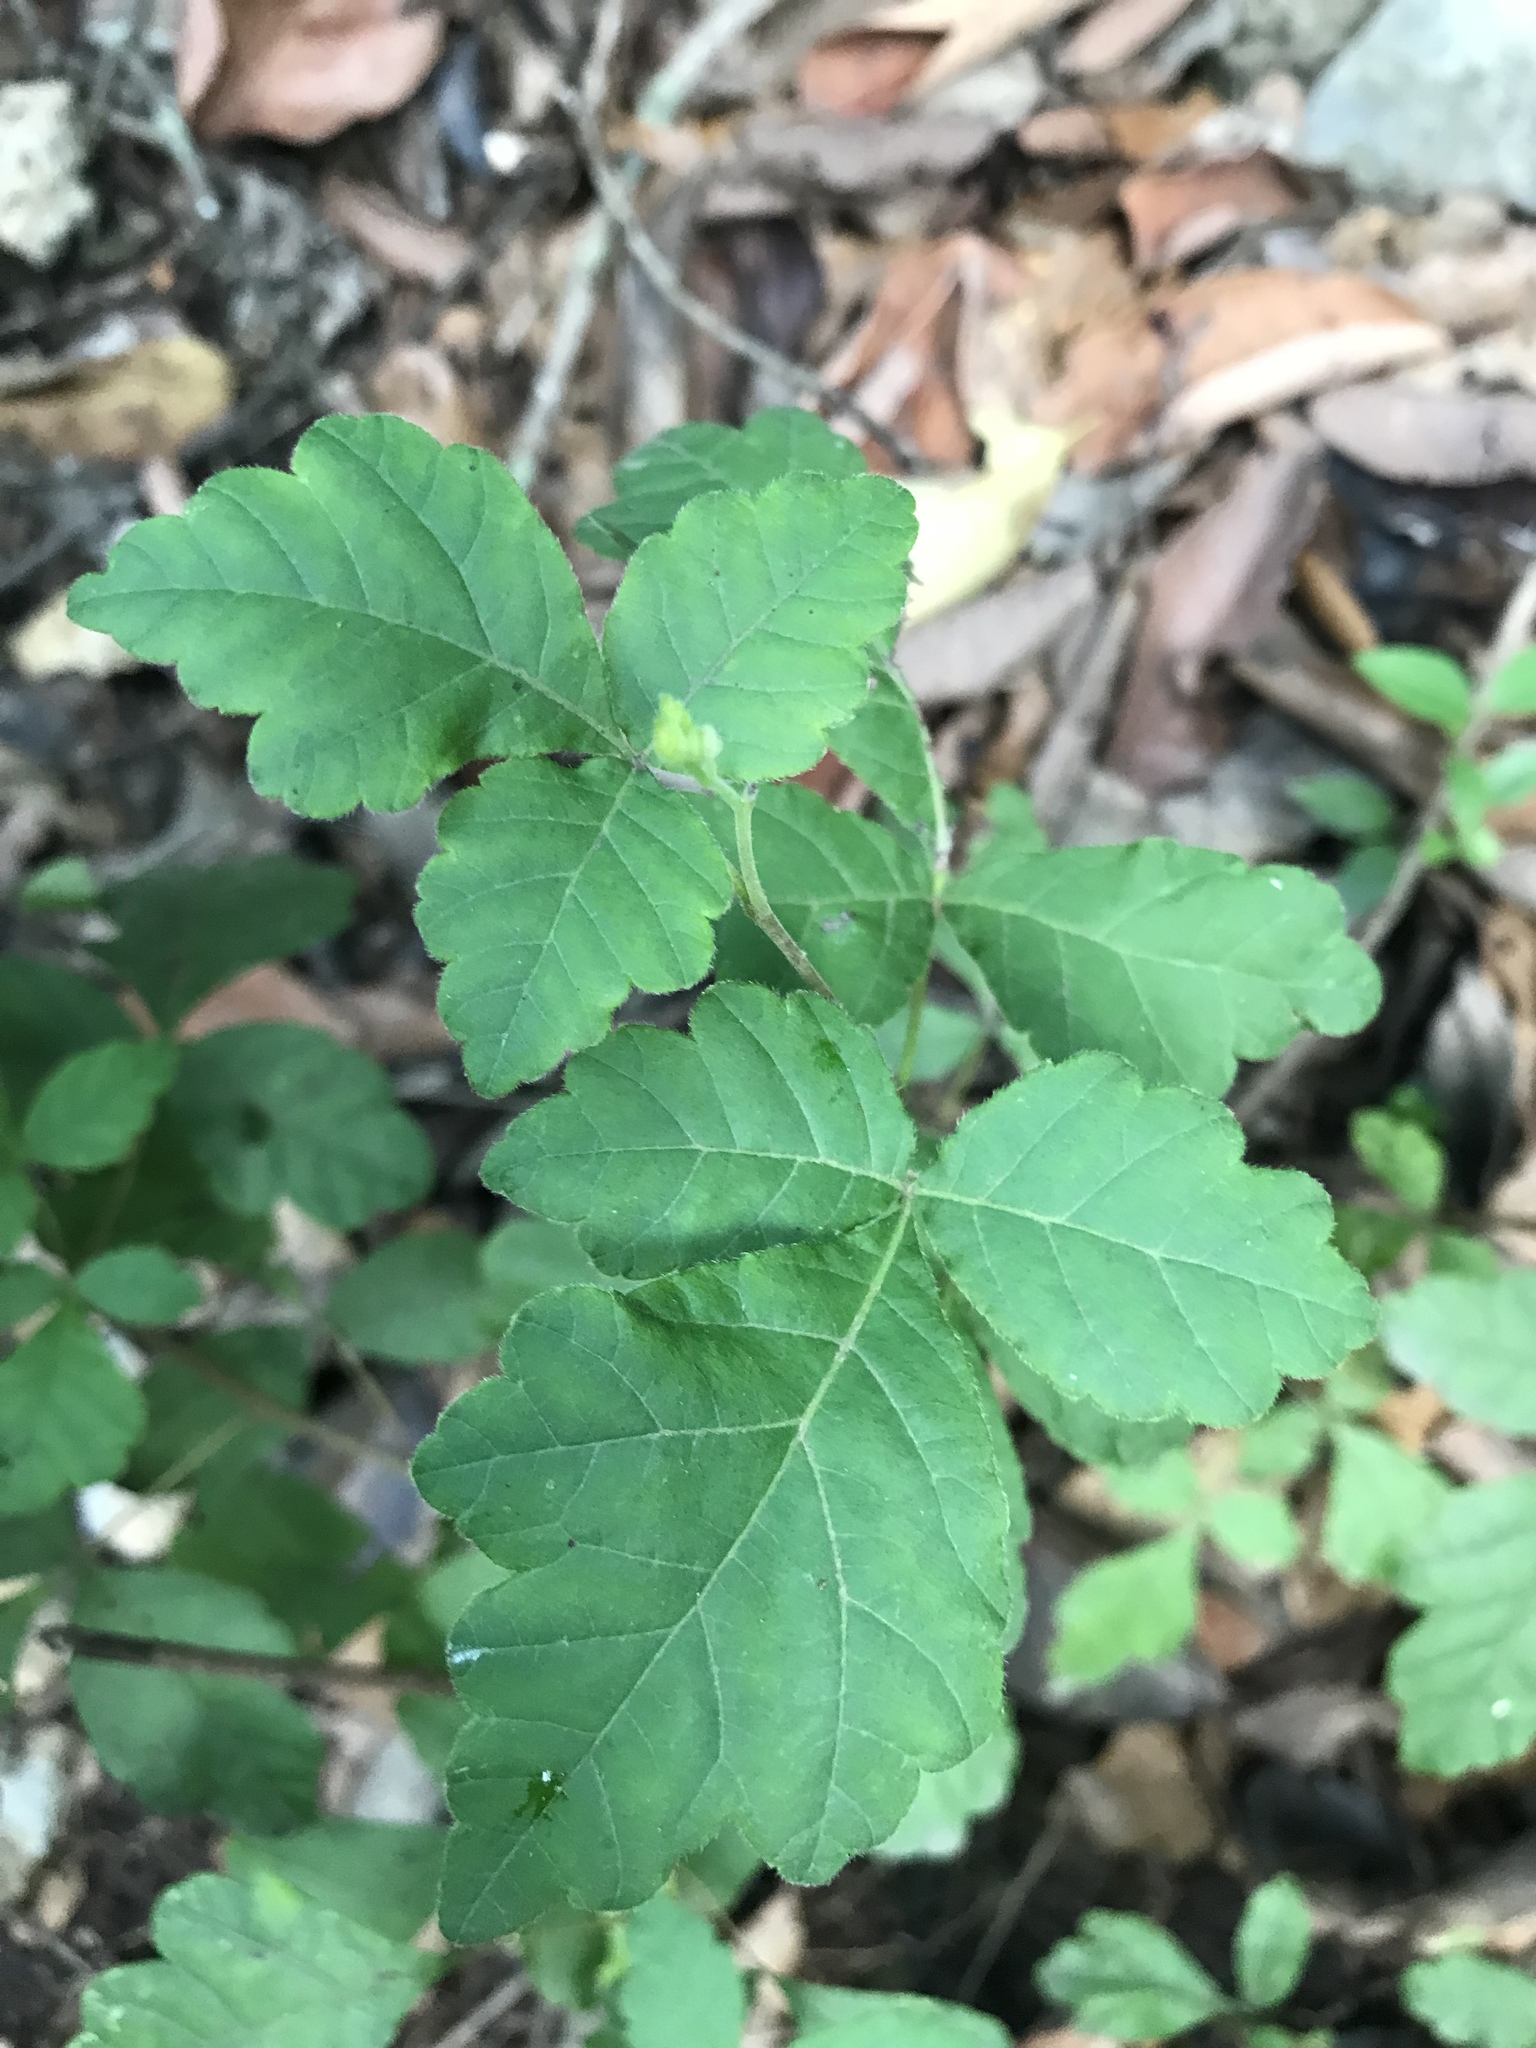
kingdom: Plantae
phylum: Tracheophyta
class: Magnoliopsida
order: Sapindales
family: Anacardiaceae
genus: Toxicodendron
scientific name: Toxicodendron radicans
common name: Poison ivy
